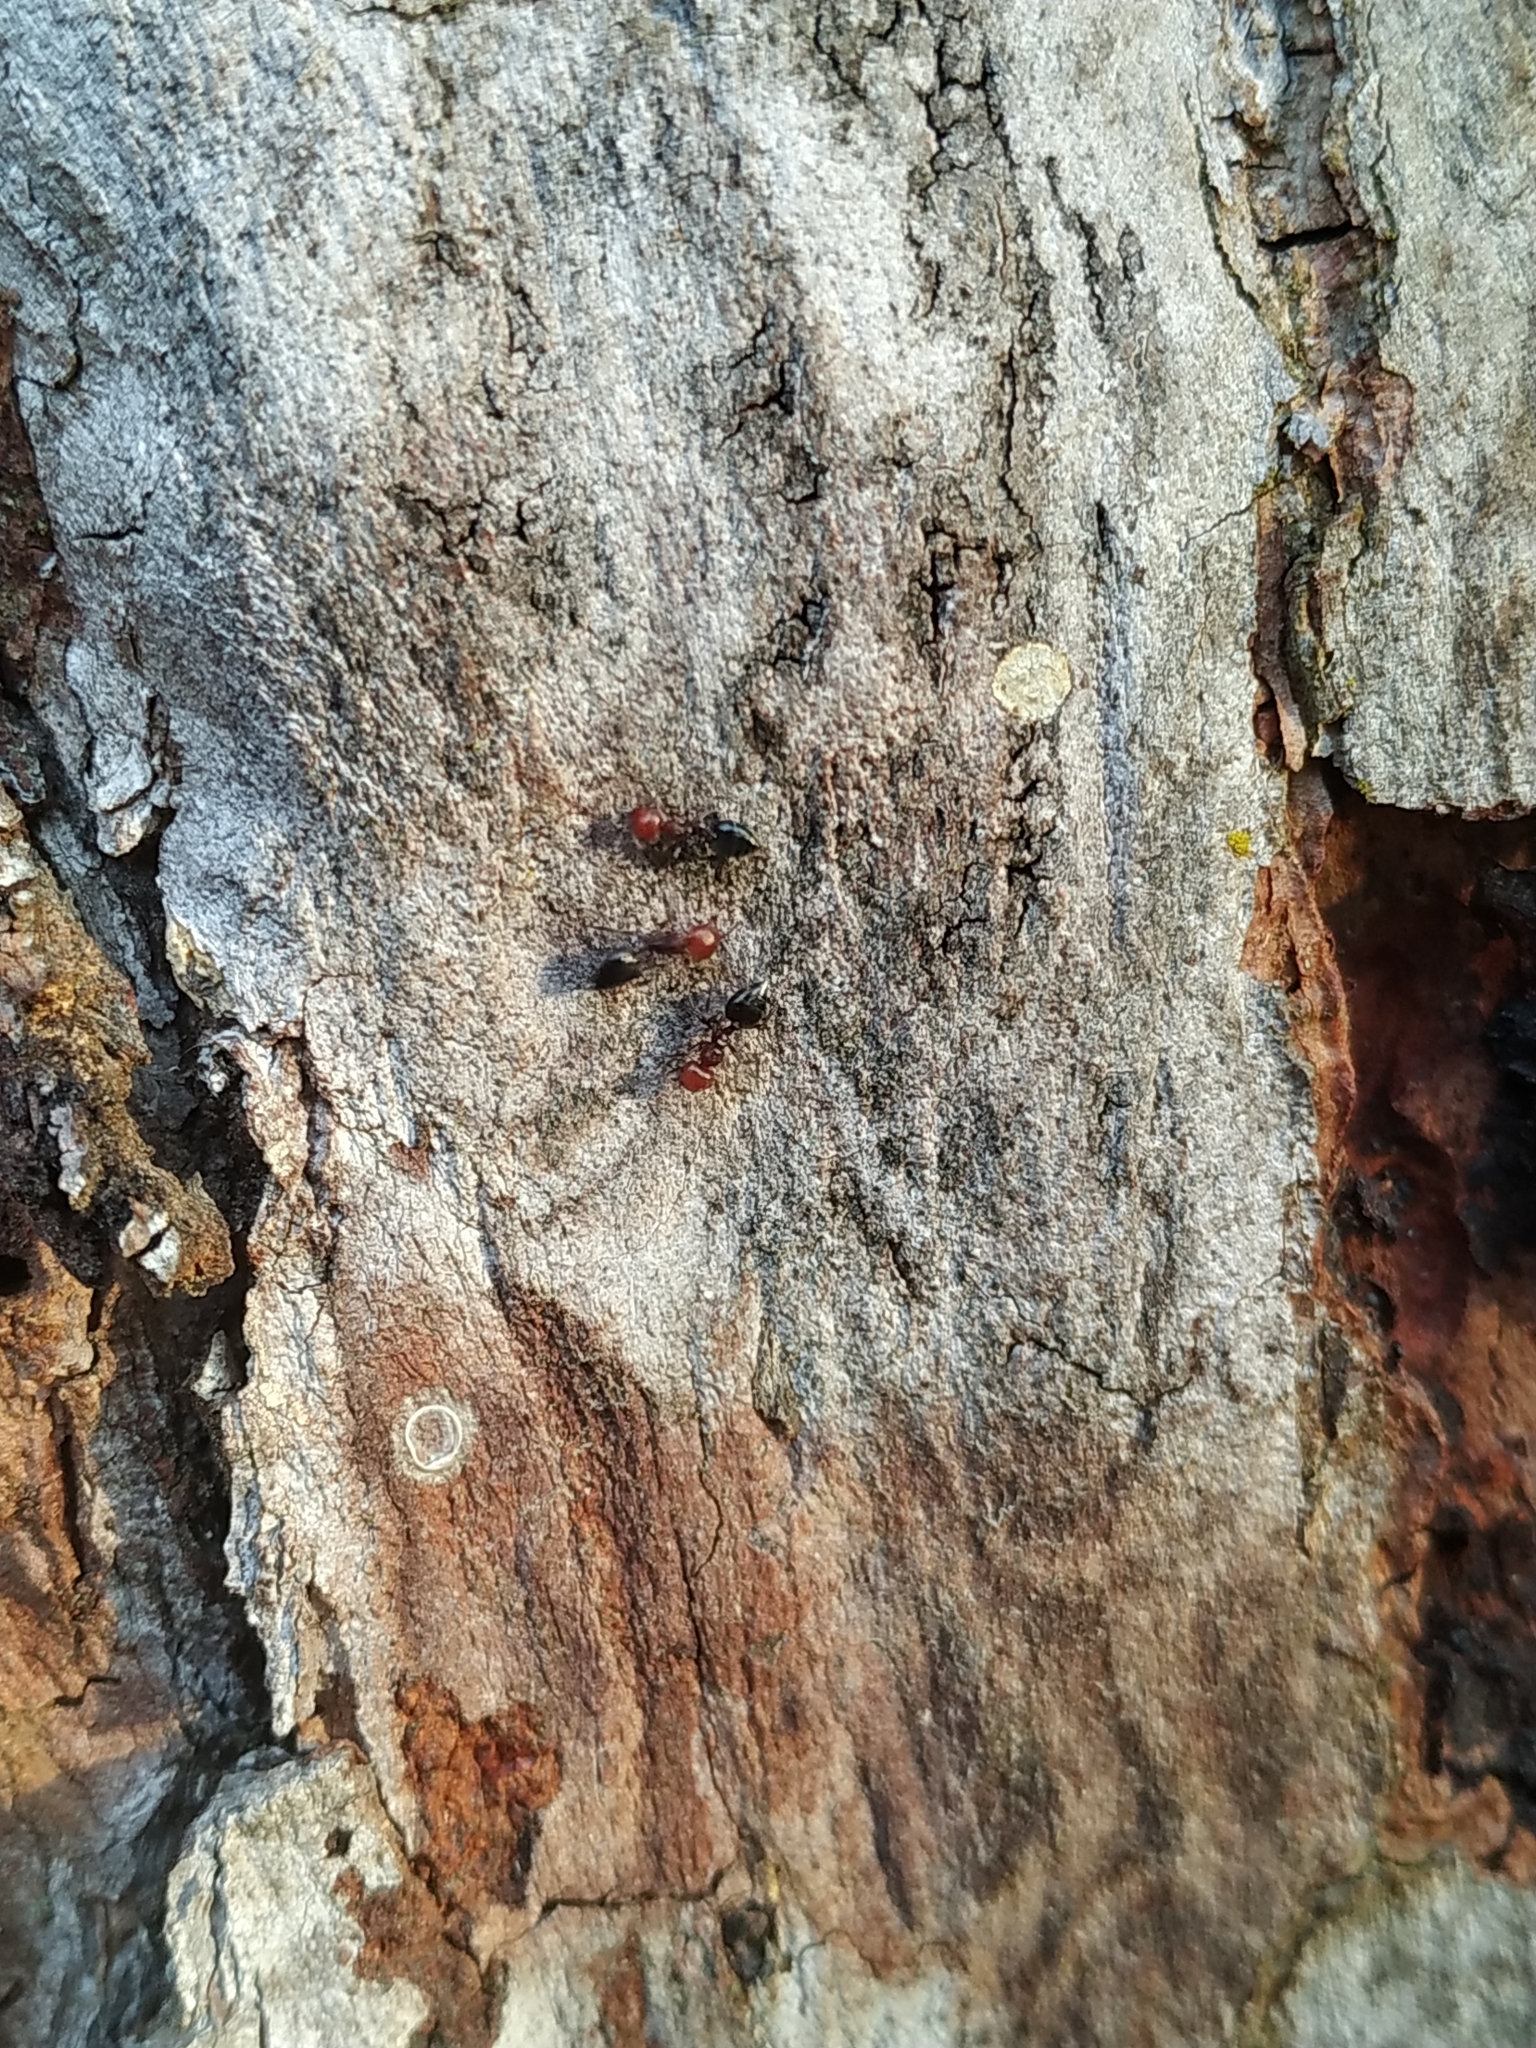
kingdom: Animalia
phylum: Arthropoda
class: Insecta
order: Hymenoptera
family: Formicidae
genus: Crematogaster
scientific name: Crematogaster scutellaris
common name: Fourmi du liège
